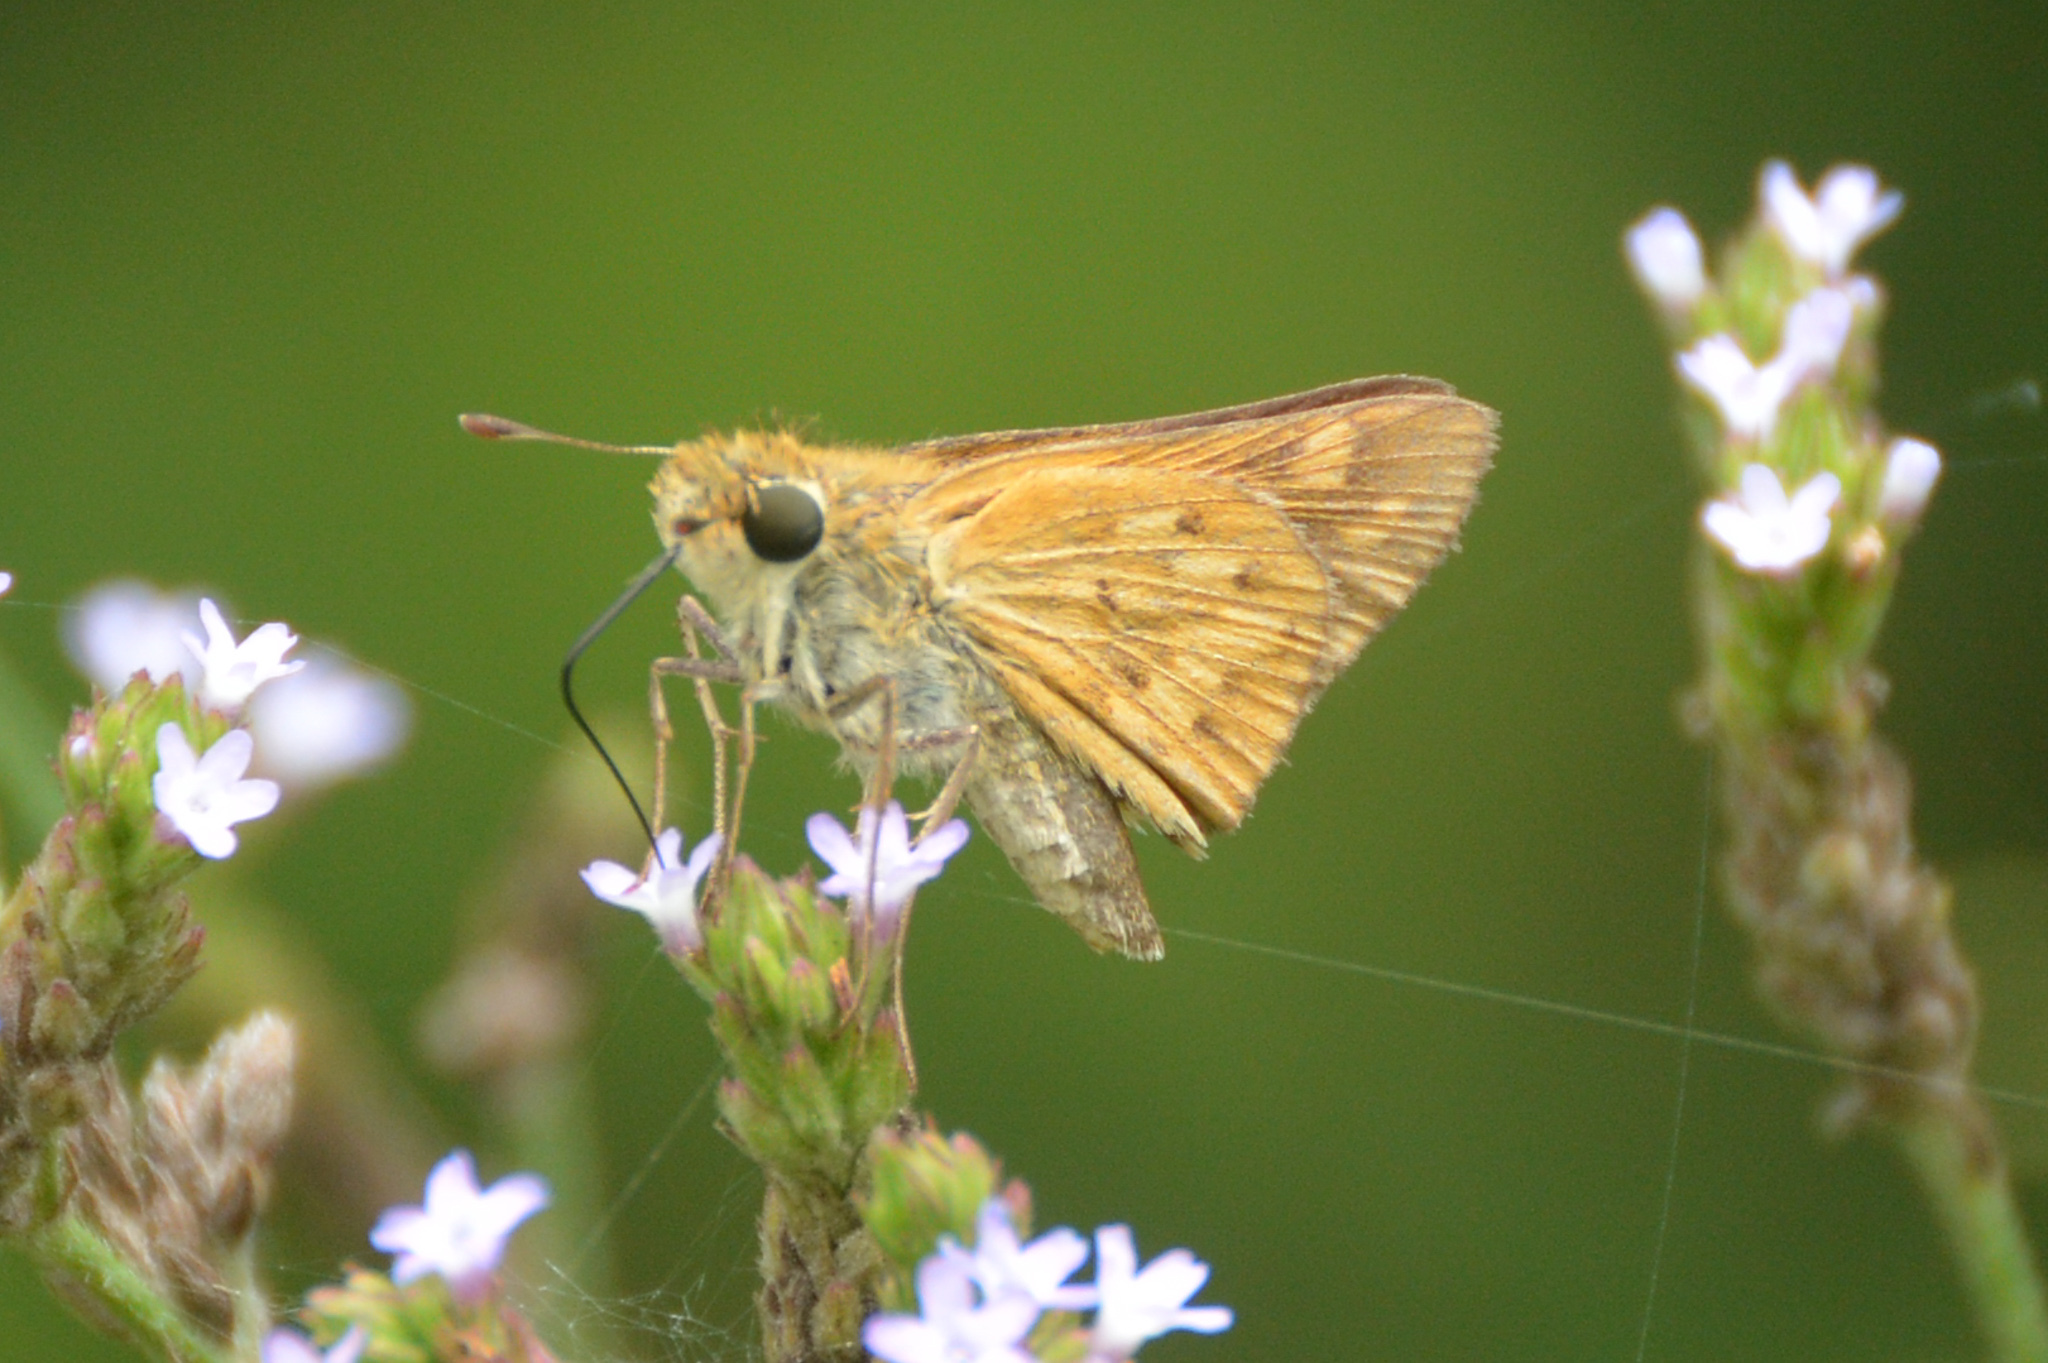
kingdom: Animalia
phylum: Arthropoda
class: Insecta
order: Lepidoptera
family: Hesperiidae
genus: Hylephila
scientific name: Hylephila phyleus
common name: Fiery skipper
